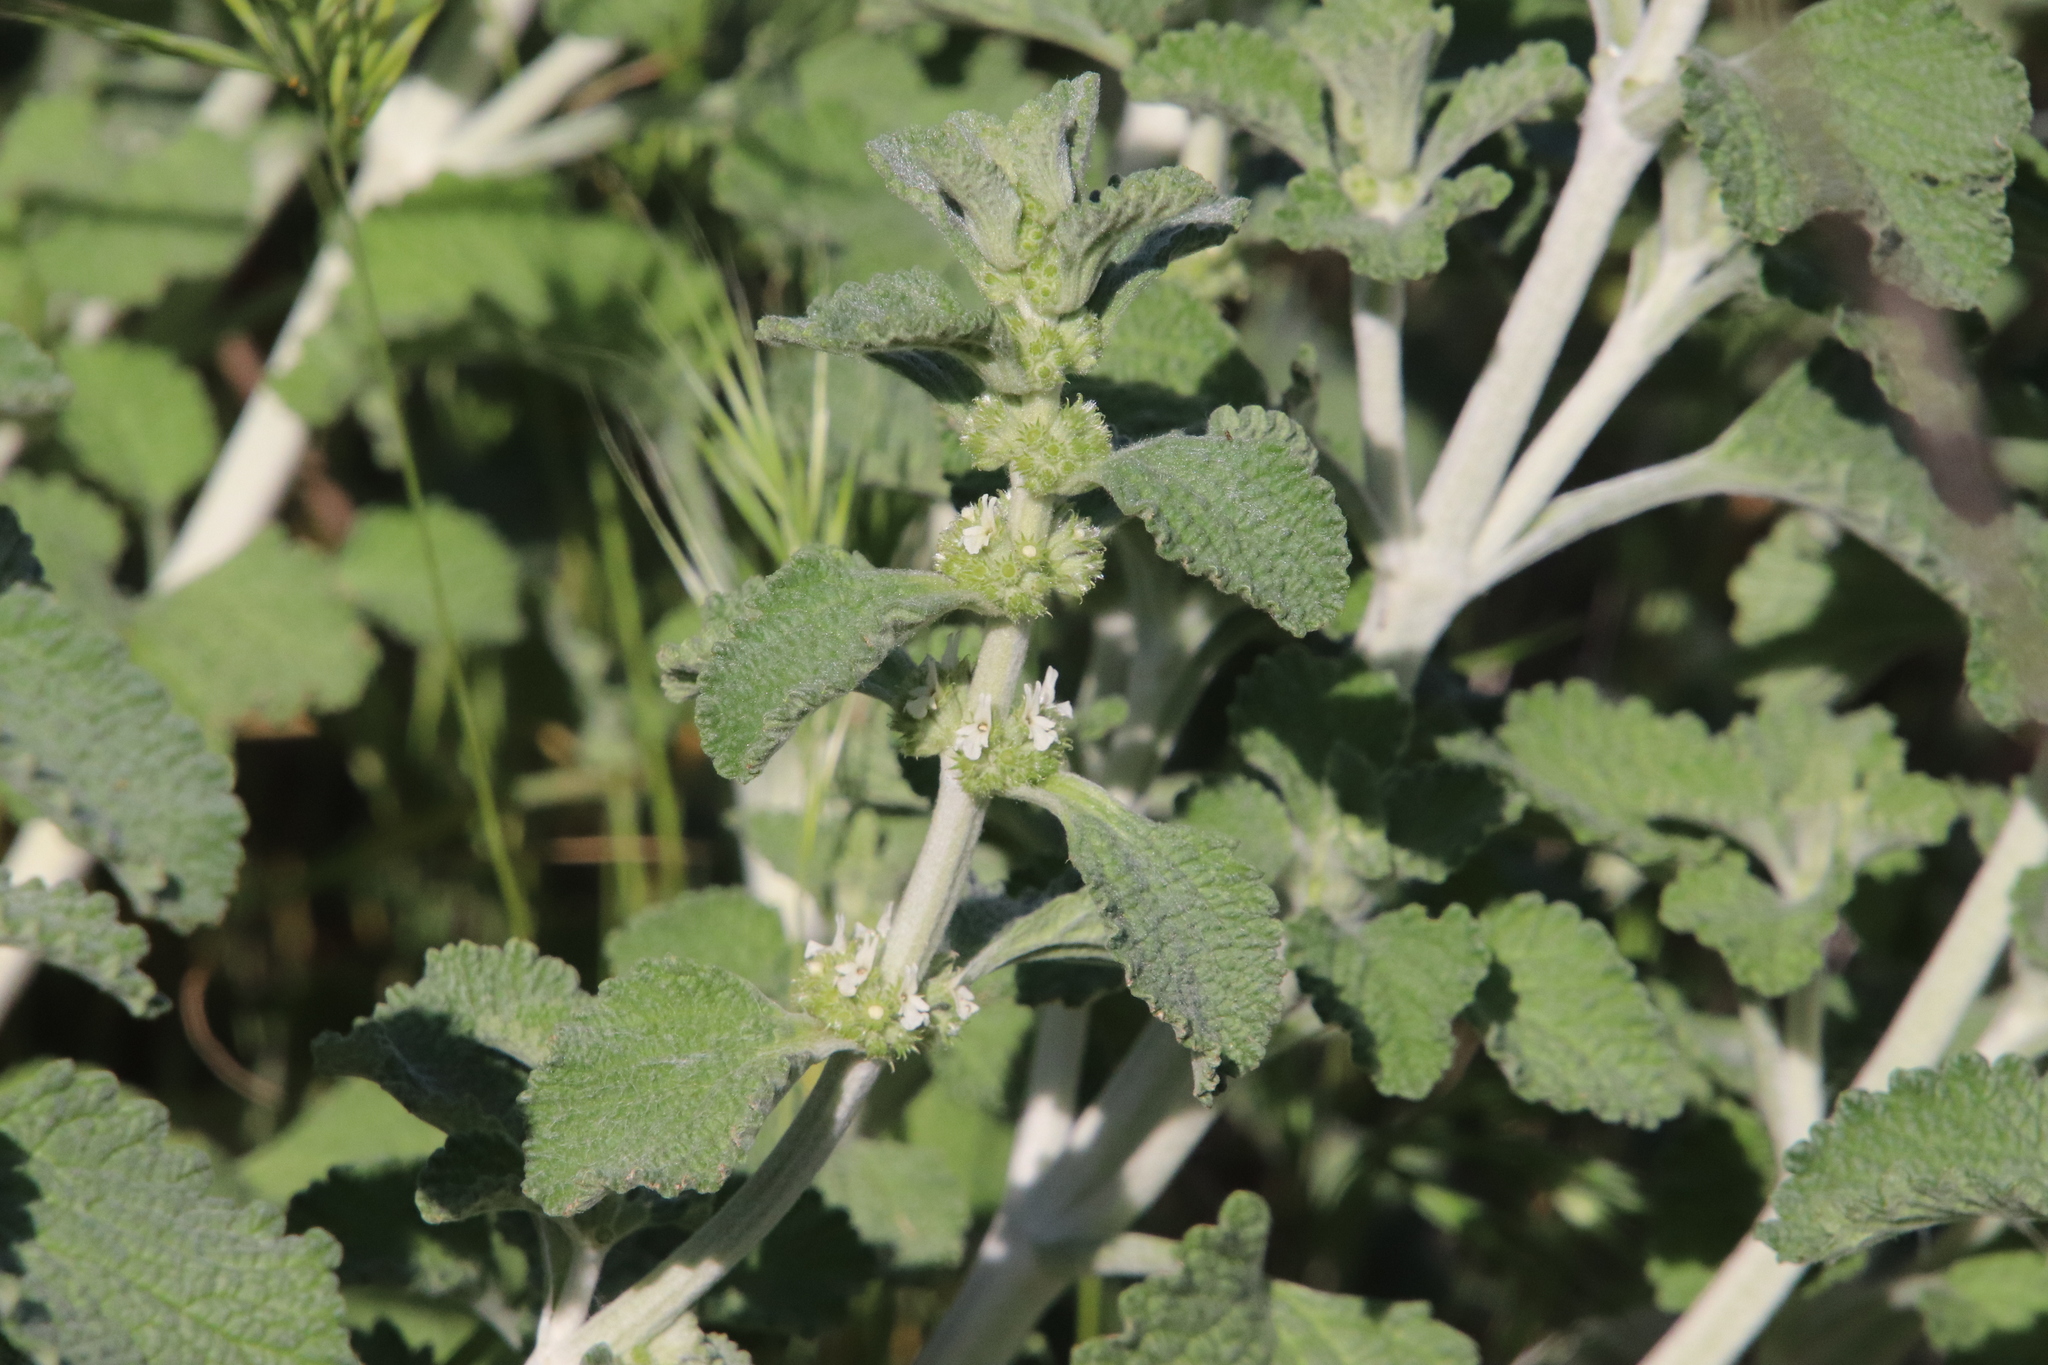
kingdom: Plantae
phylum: Tracheophyta
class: Magnoliopsida
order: Lamiales
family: Lamiaceae
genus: Marrubium
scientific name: Marrubium vulgare
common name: Horehound
